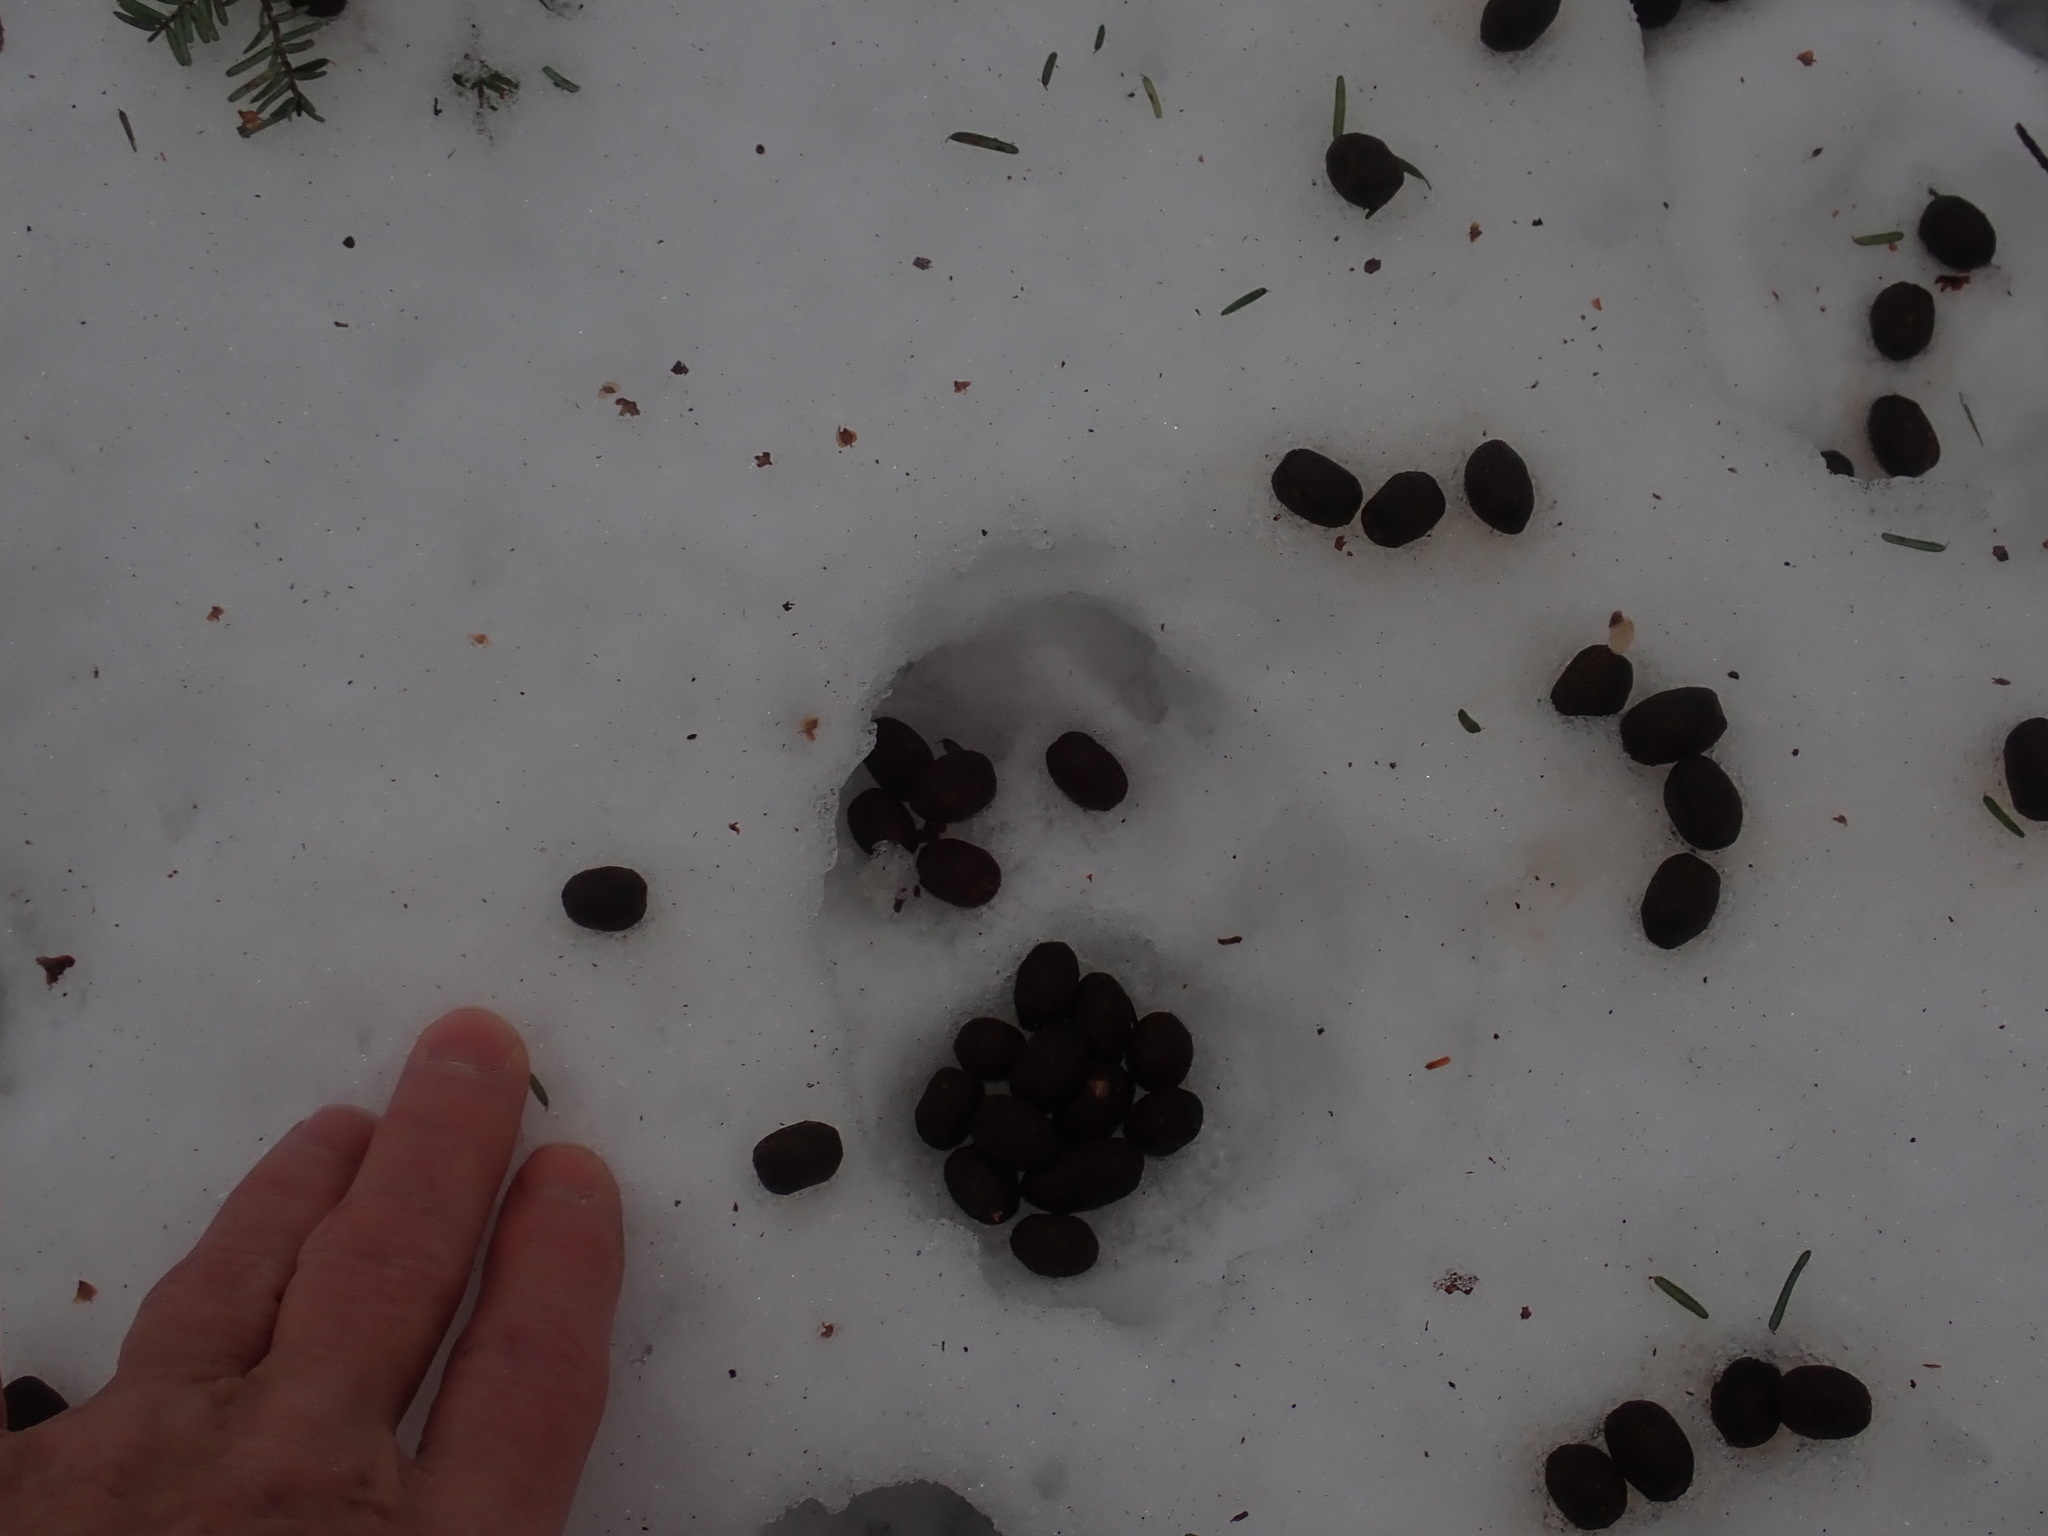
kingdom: Animalia
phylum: Chordata
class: Mammalia
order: Artiodactyla
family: Cervidae
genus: Odocoileus
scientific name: Odocoileus virginianus
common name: White-tailed deer
